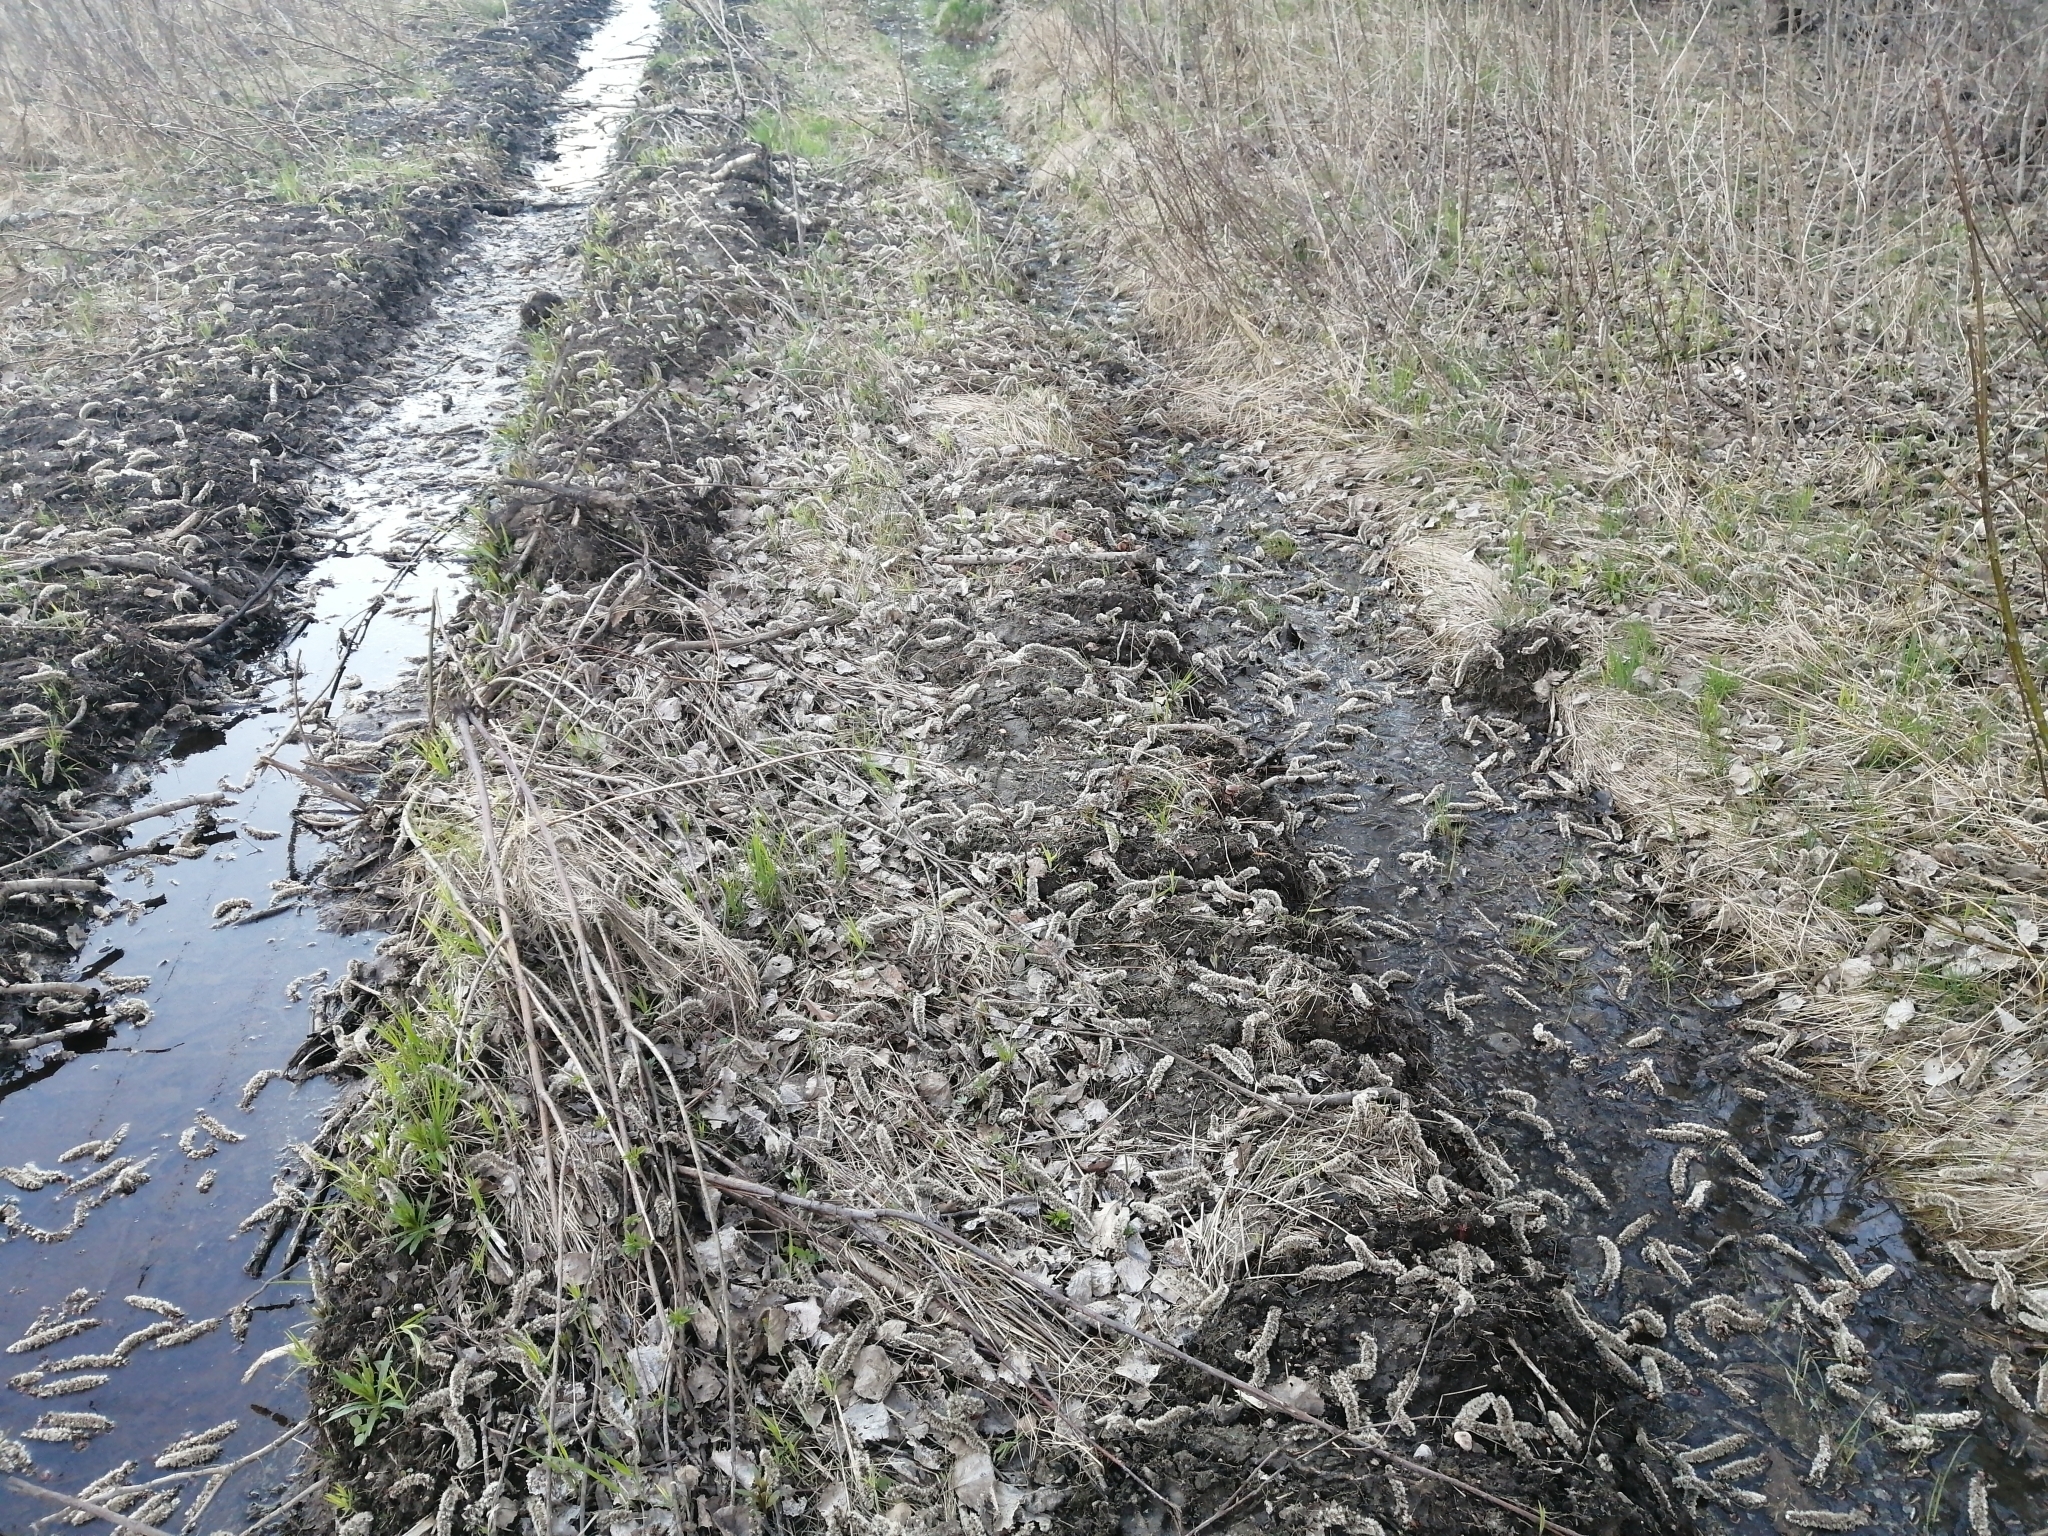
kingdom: Plantae
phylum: Tracheophyta
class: Magnoliopsida
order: Malpighiales
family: Salicaceae
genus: Populus
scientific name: Populus tremula
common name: European aspen
